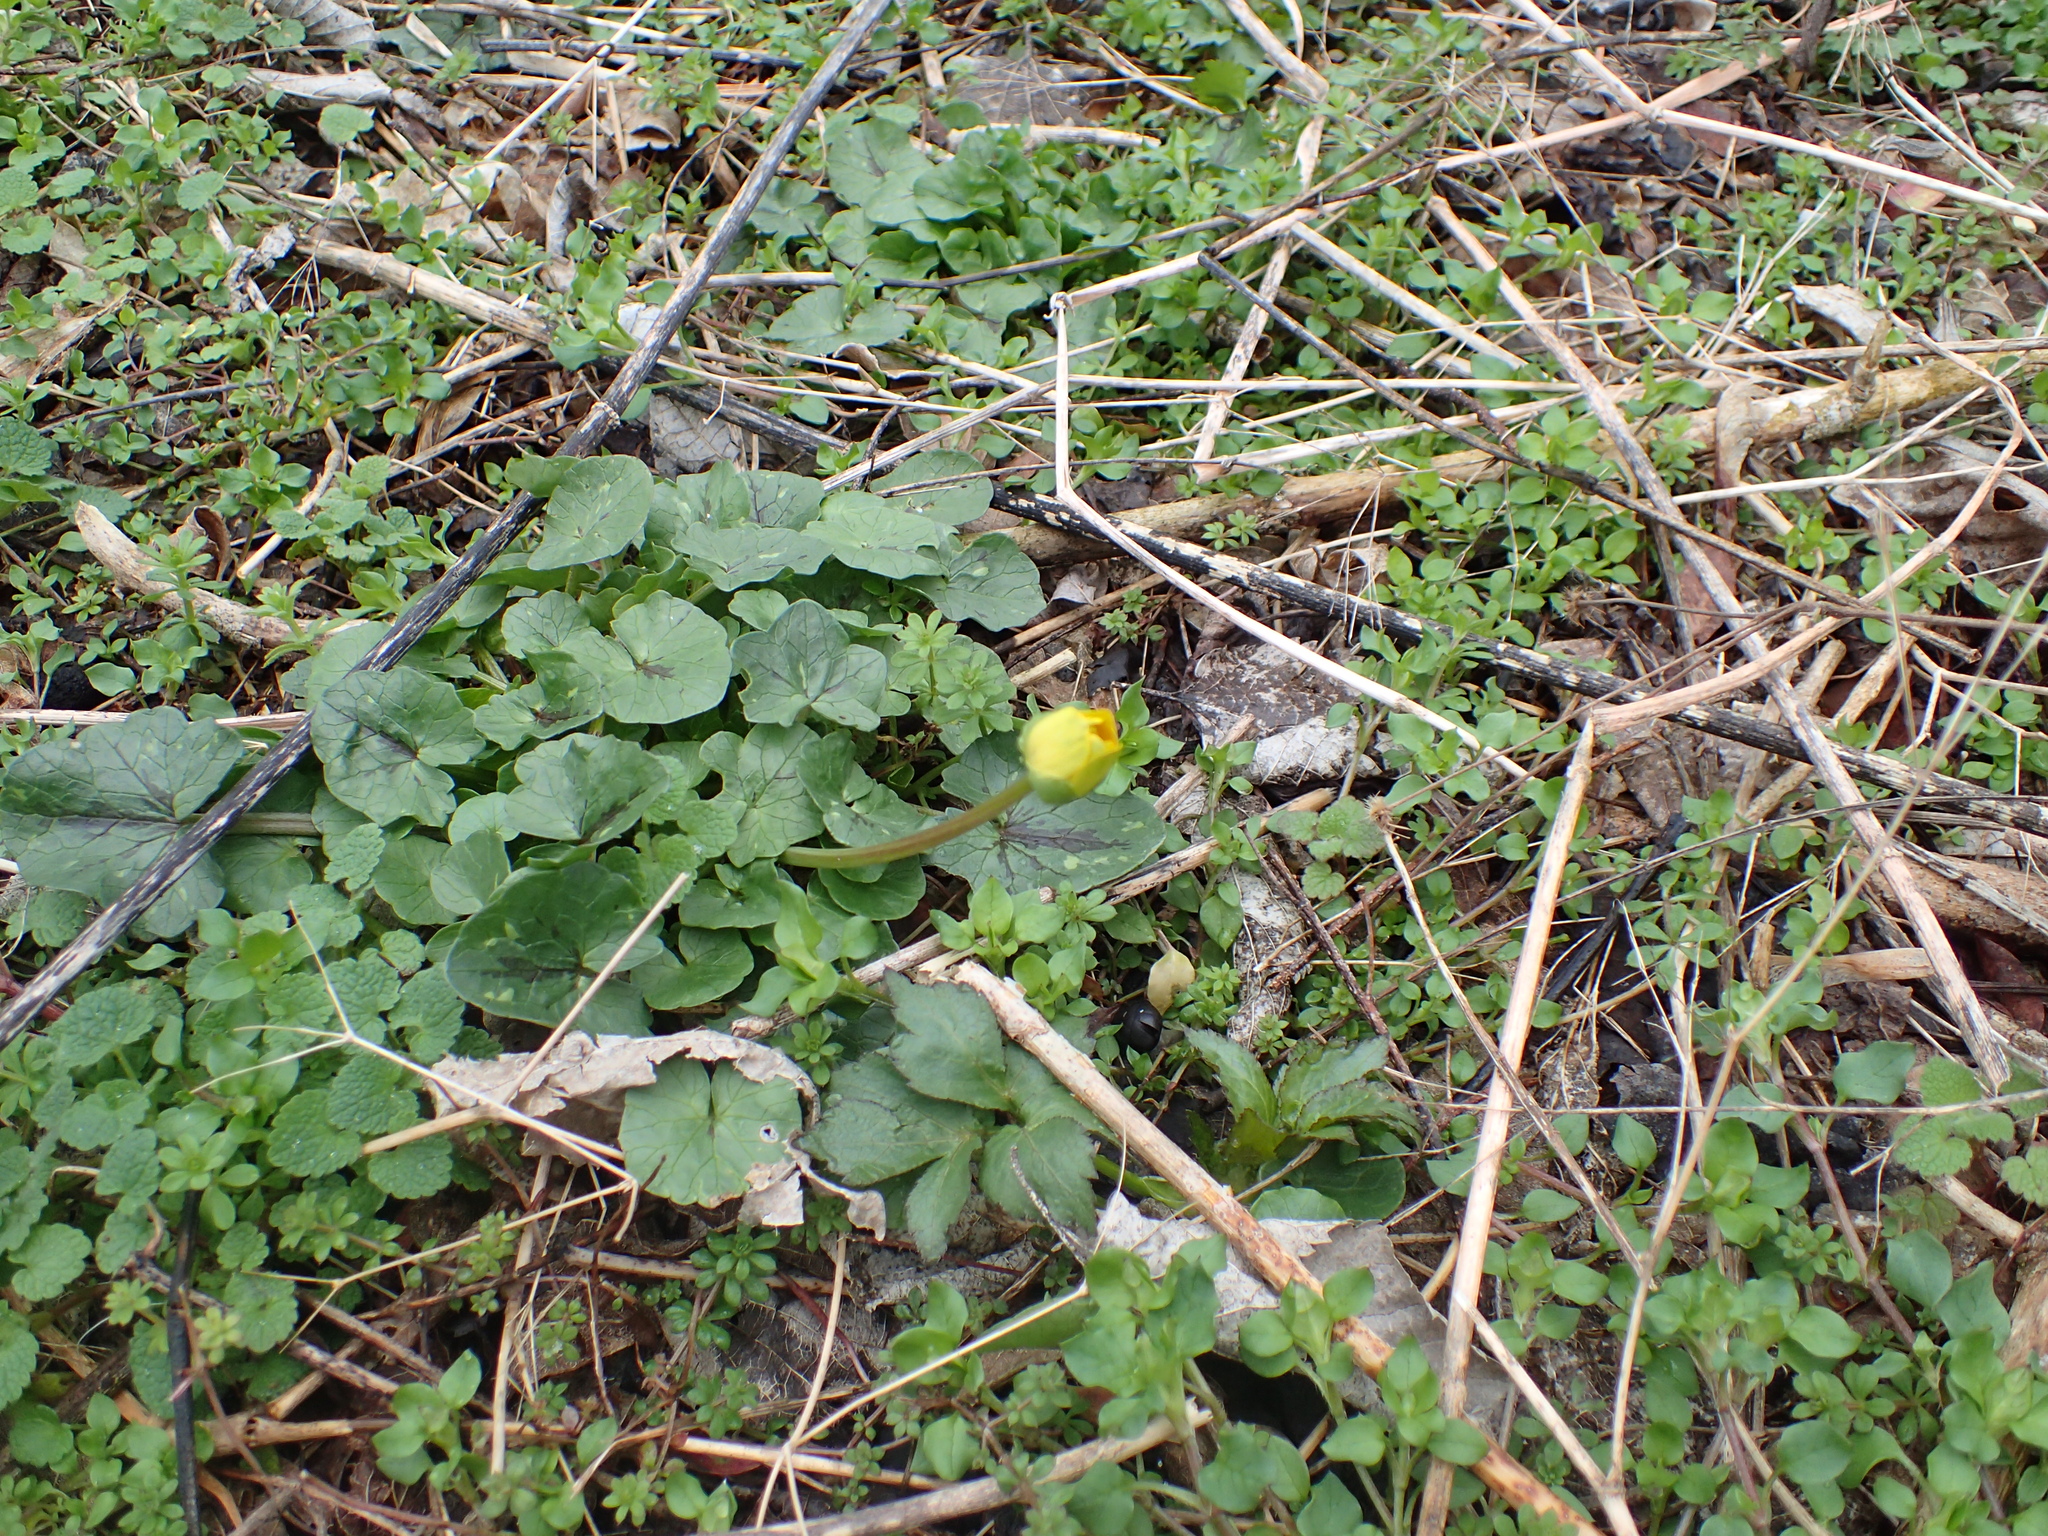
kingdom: Plantae
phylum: Tracheophyta
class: Magnoliopsida
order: Ranunculales
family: Ranunculaceae
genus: Ficaria
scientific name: Ficaria verna
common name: Lesser celandine
